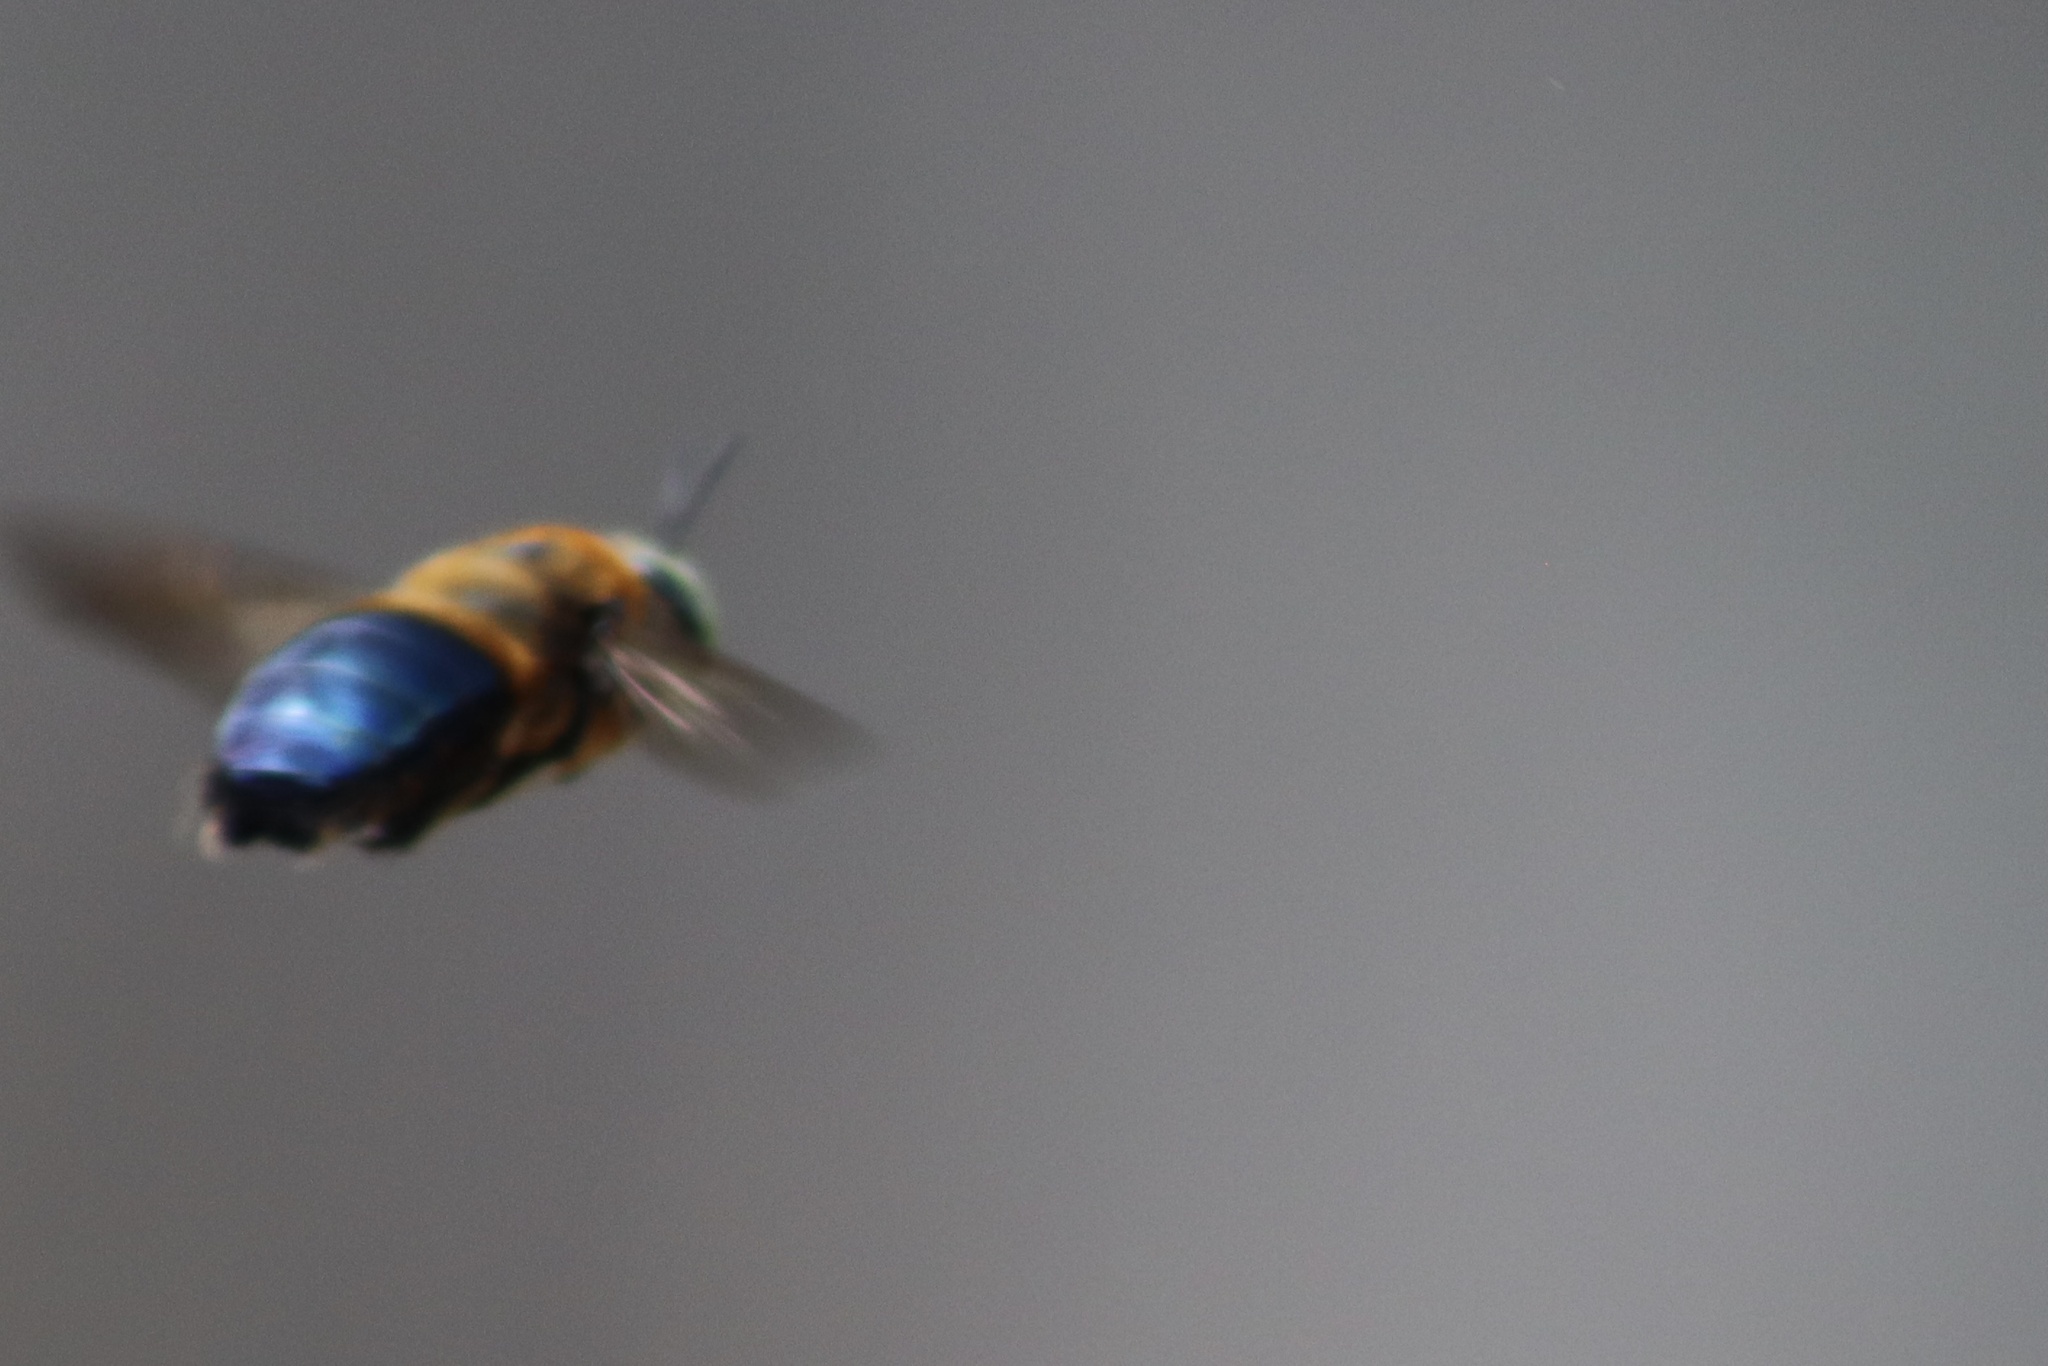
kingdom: Animalia
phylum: Arthropoda
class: Insecta
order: Hymenoptera
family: Apidae
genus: Xylocopa
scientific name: Xylocopa micans
